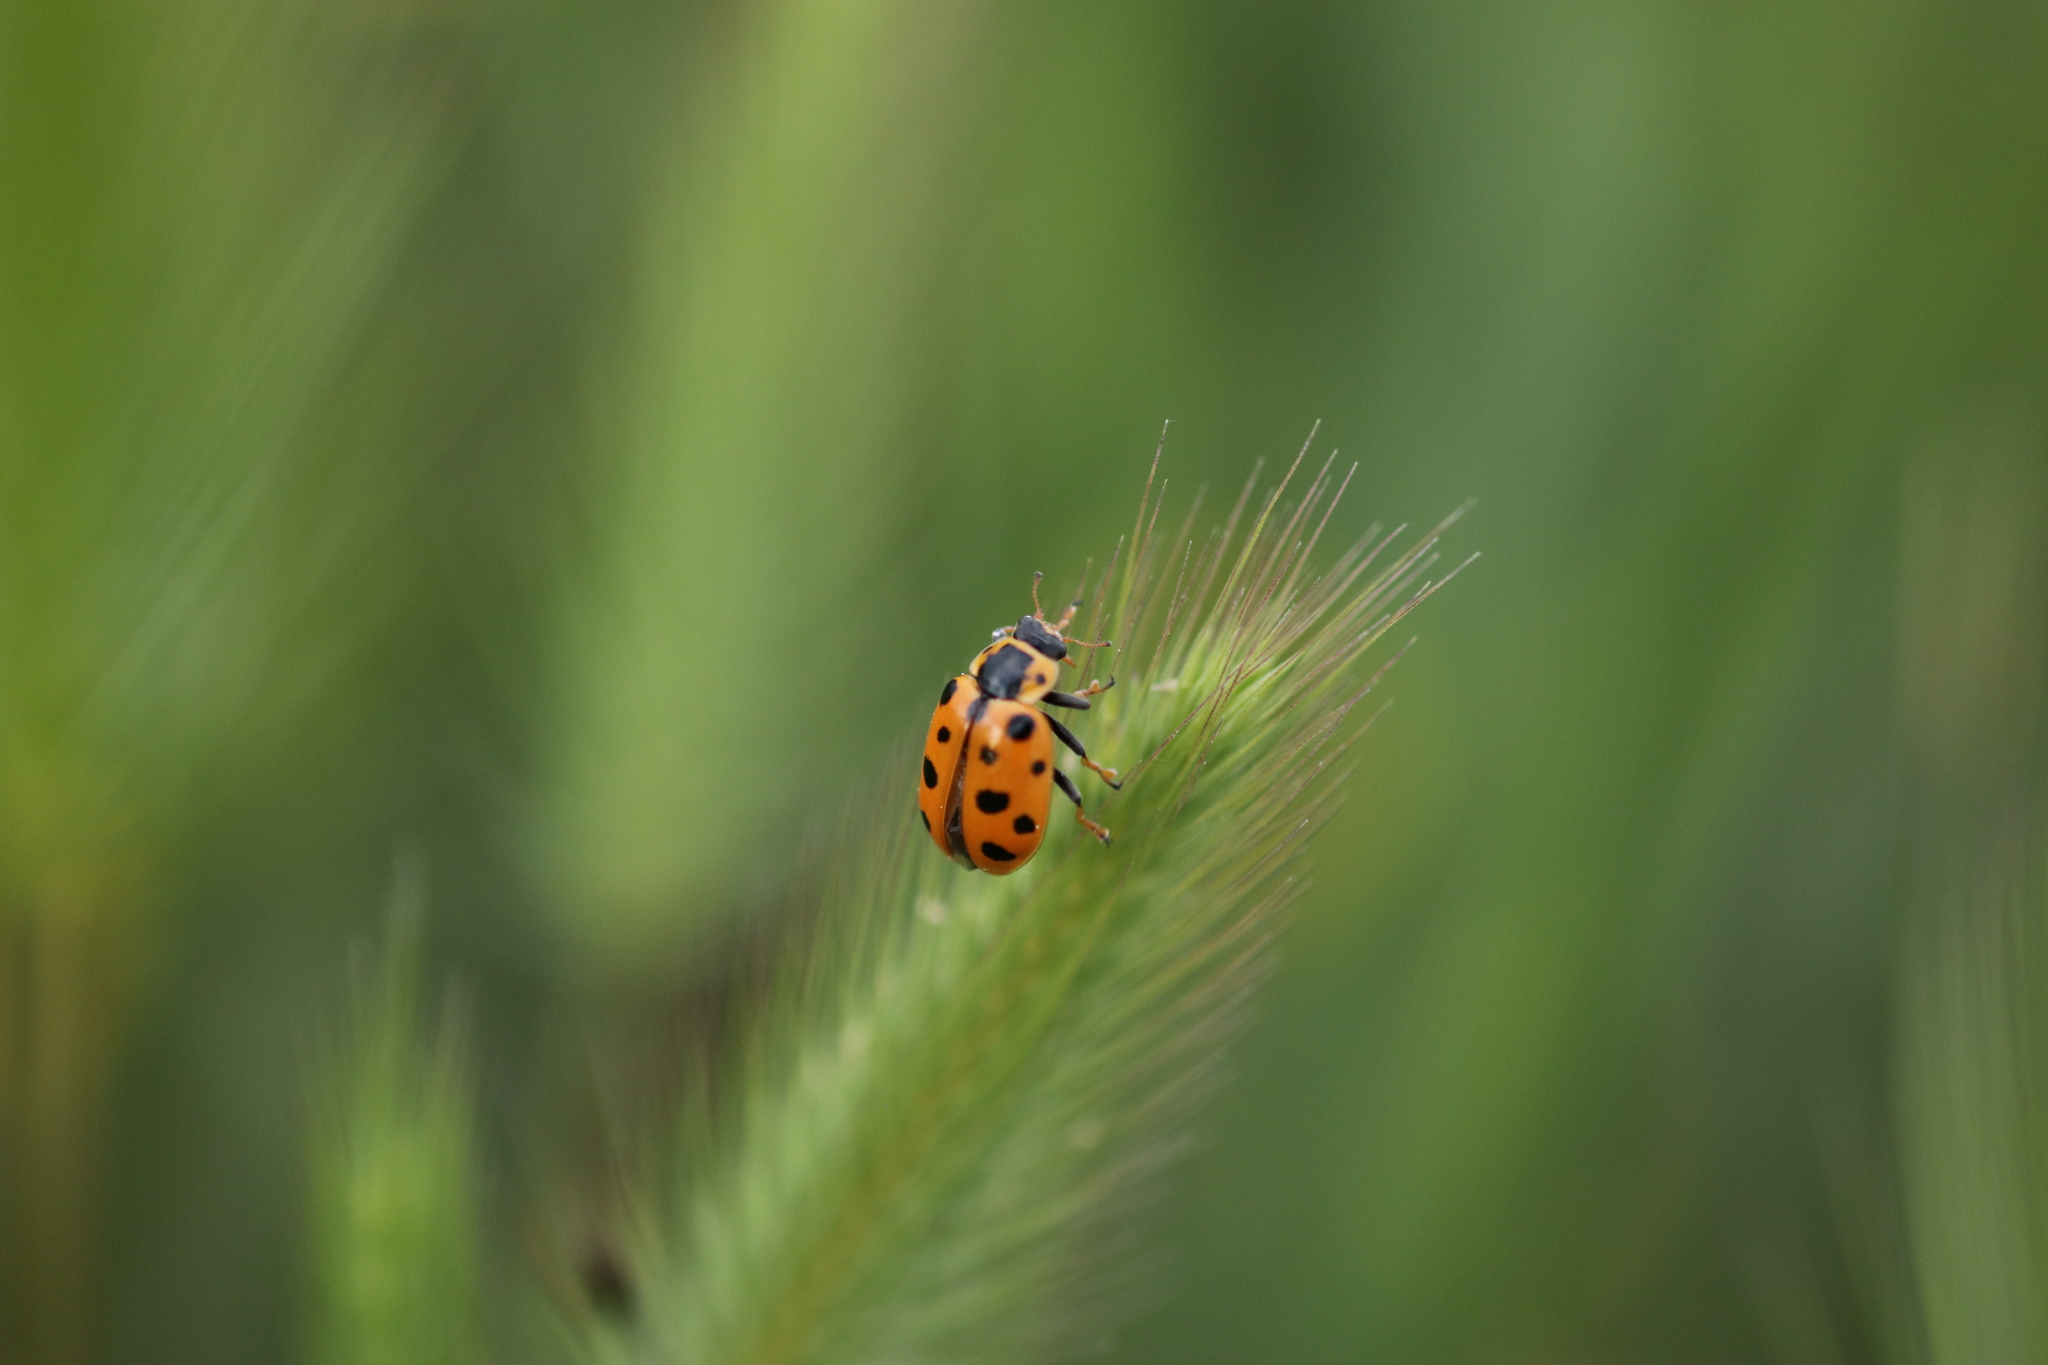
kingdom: Animalia
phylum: Arthropoda
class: Insecta
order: Coleoptera
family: Coccinellidae
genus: Hippodamia
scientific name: Hippodamia tredecimpunctata
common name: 13-spot ladybird
